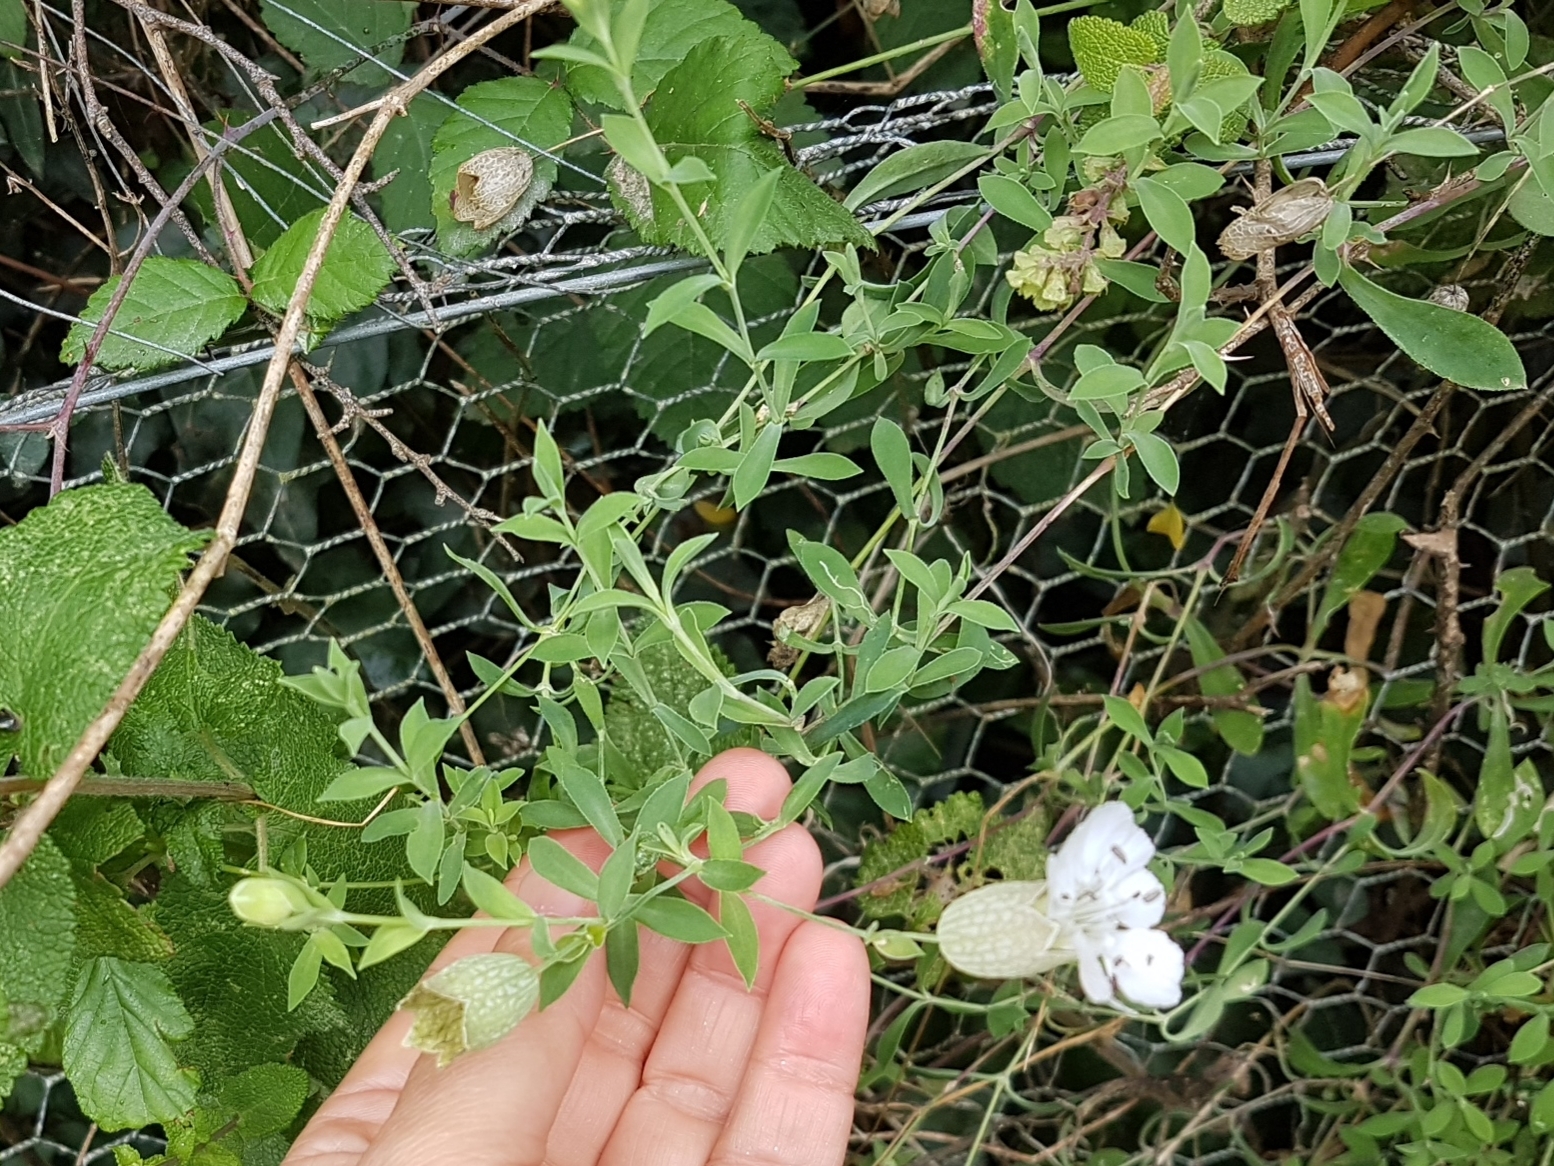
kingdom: Plantae
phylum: Tracheophyta
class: Magnoliopsida
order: Caryophyllales
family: Caryophyllaceae
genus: Silene
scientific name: Silene uniflora
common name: Sea campion
